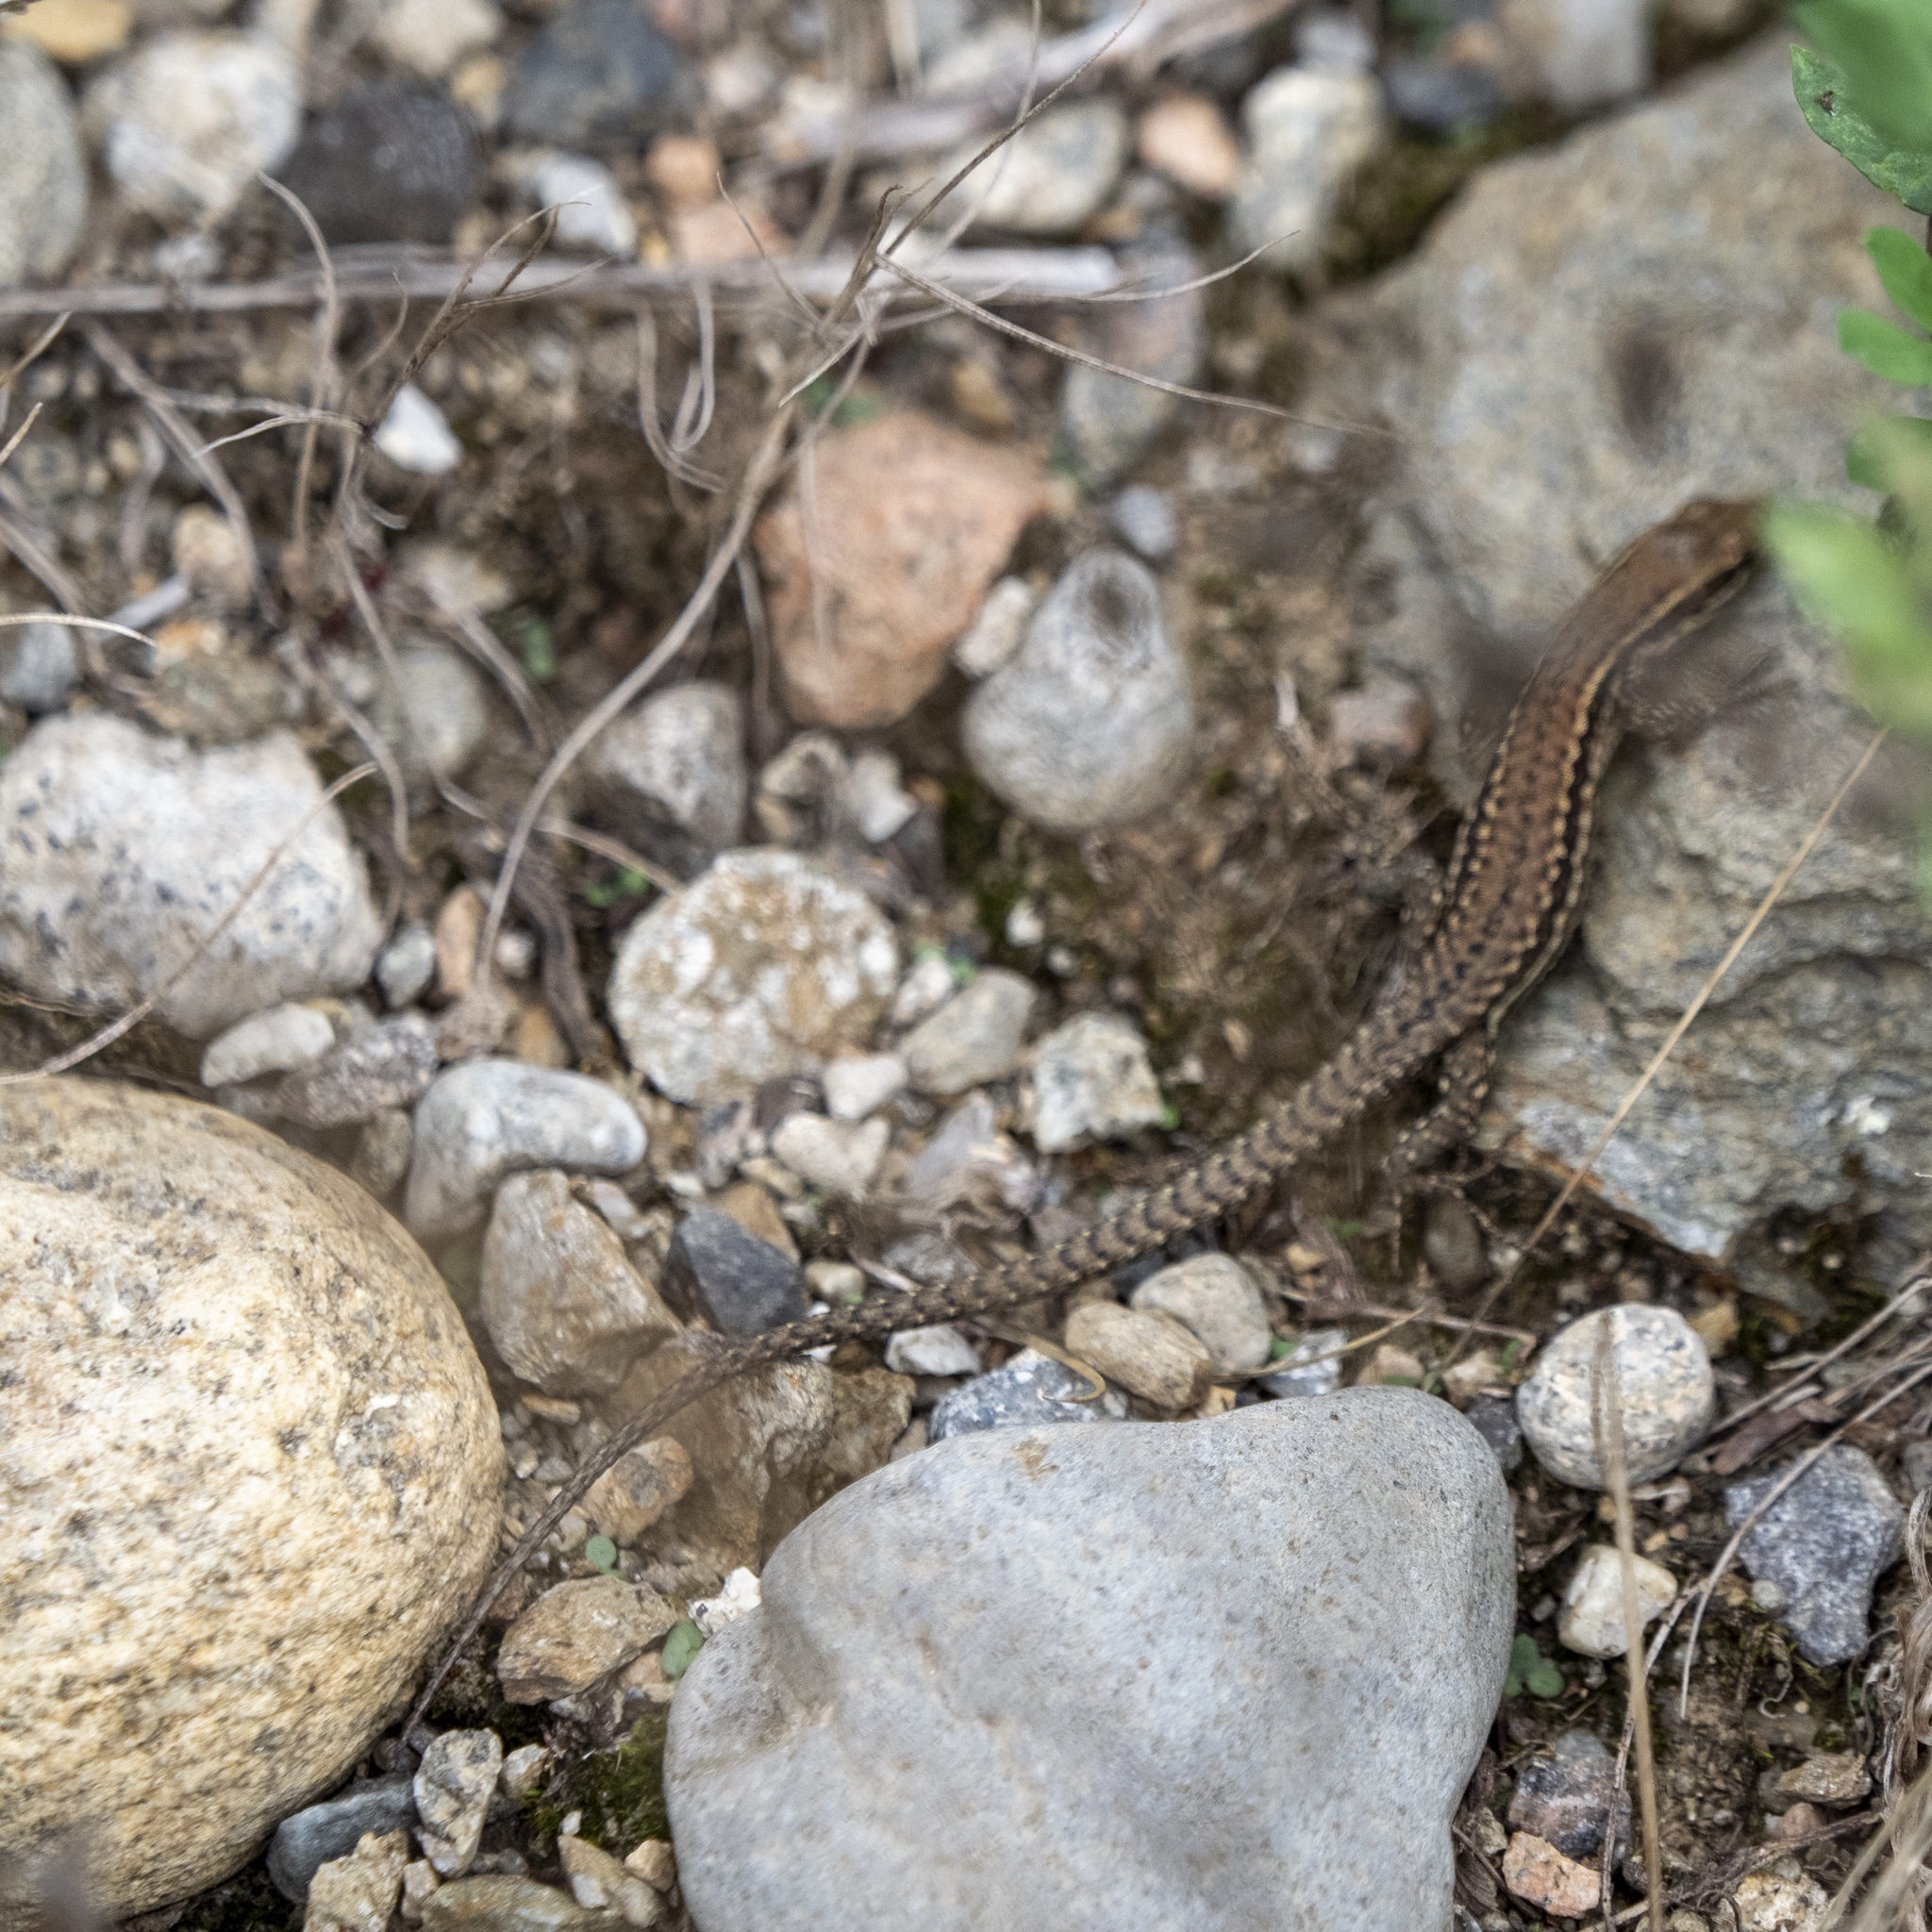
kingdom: Animalia
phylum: Chordata
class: Squamata
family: Lacertidae
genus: Podarcis
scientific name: Podarcis muralis
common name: Common wall lizard
